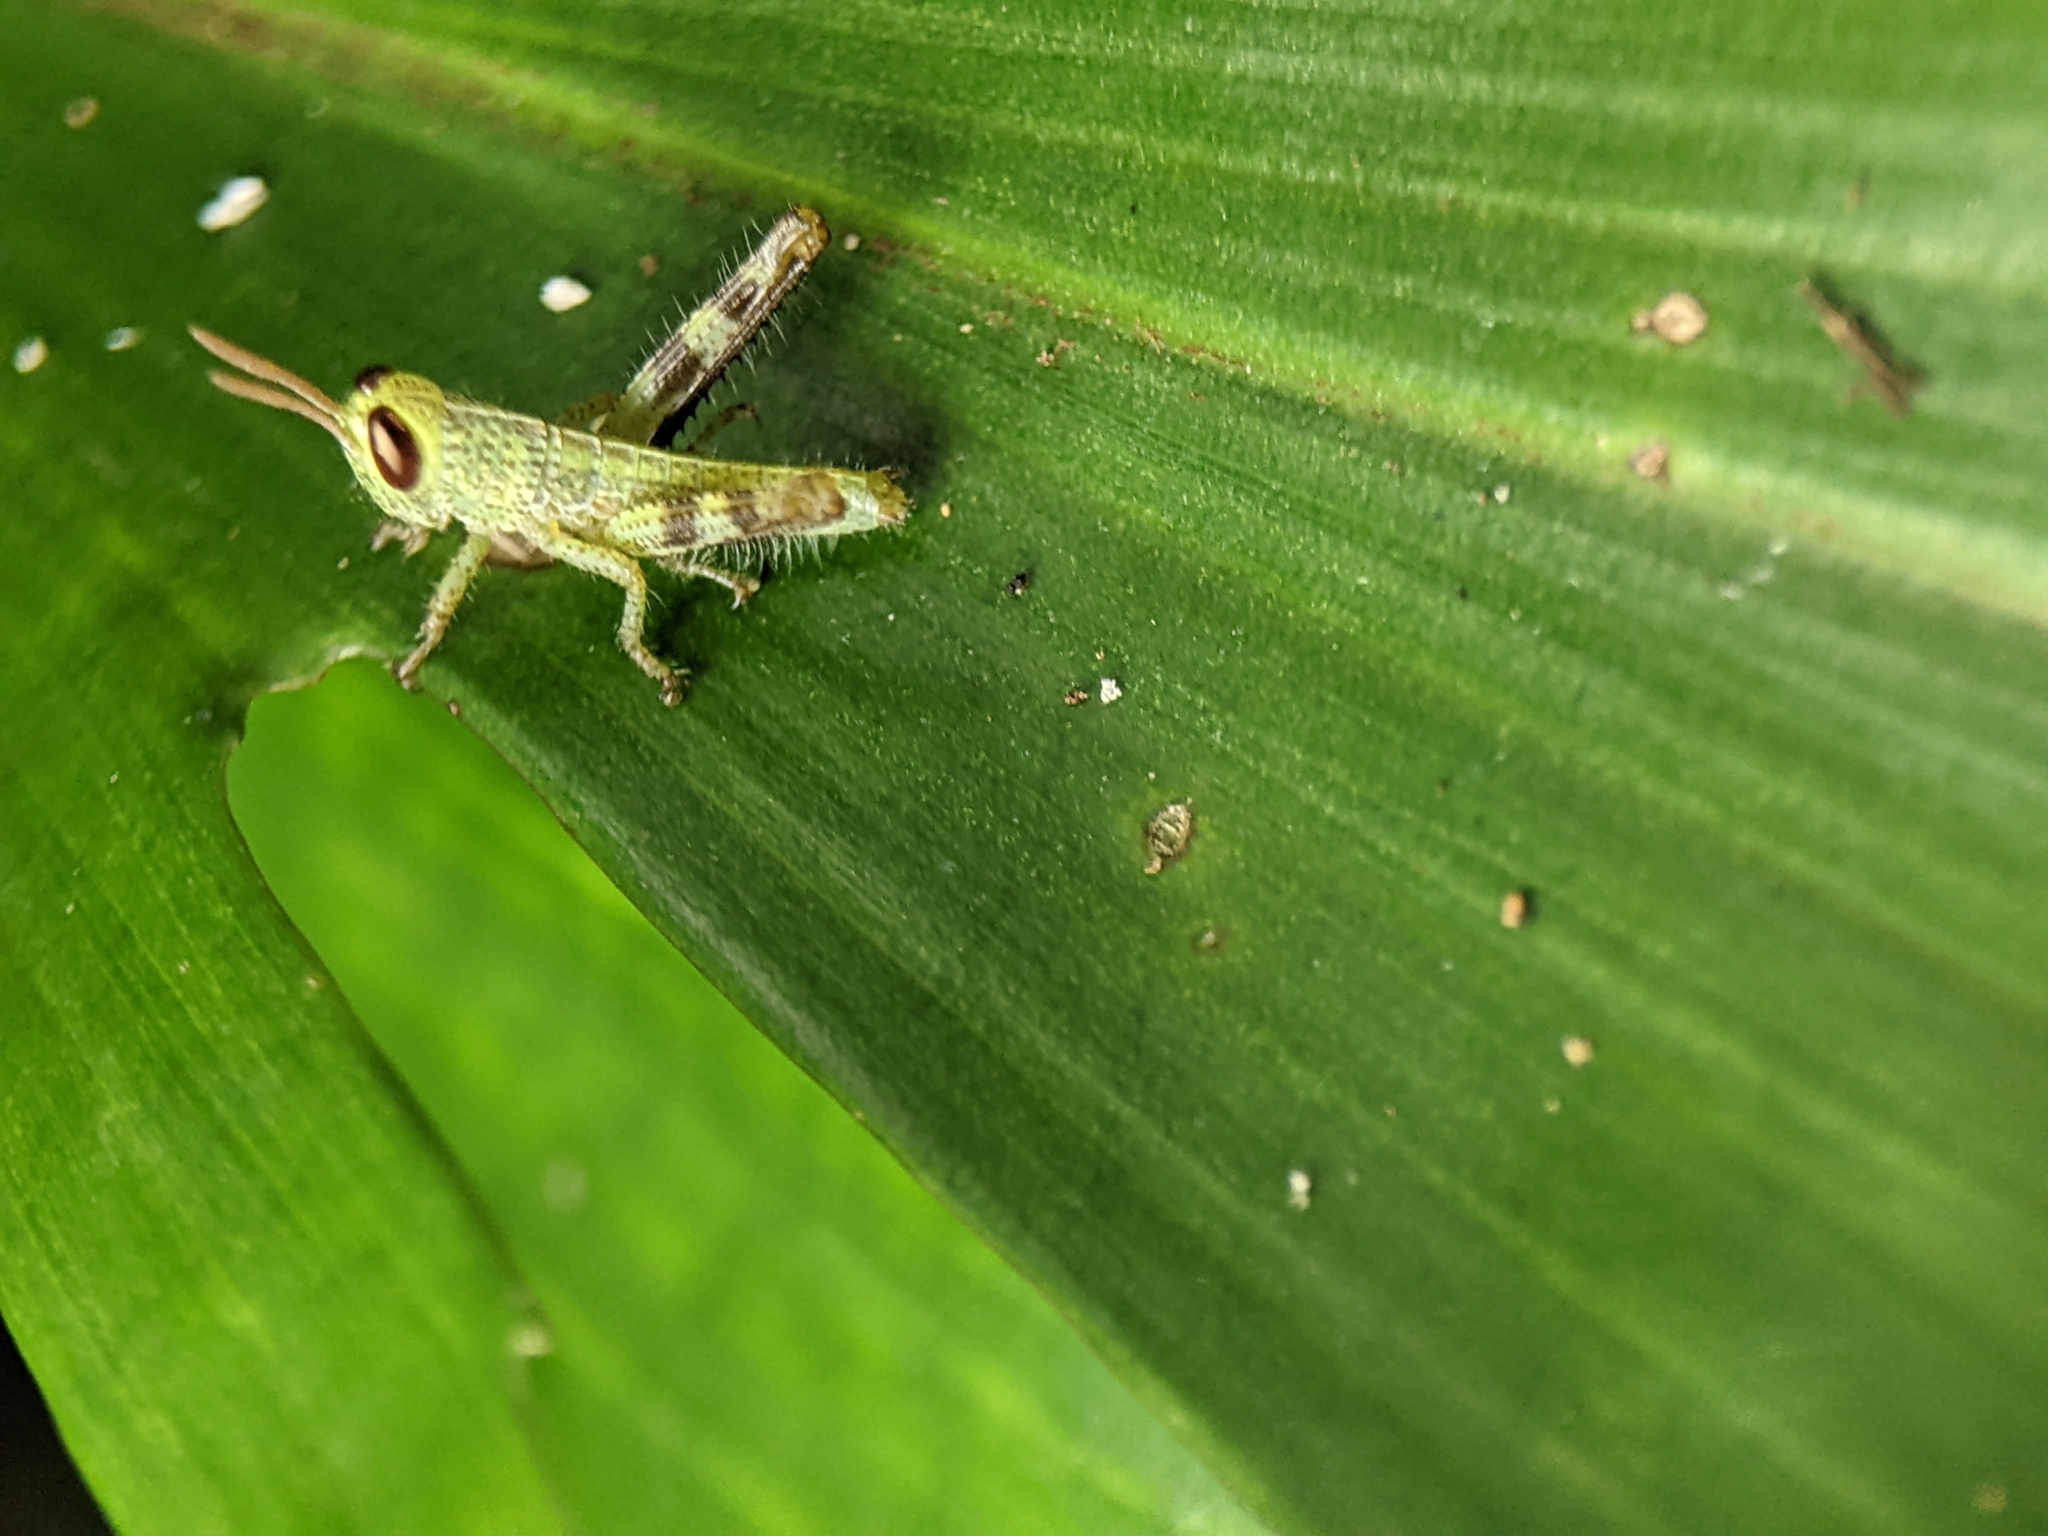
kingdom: Animalia
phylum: Arthropoda
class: Insecta
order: Orthoptera
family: Acrididae
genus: Valanga
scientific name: Valanga nigricornis
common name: Javanese bird grasshopper
